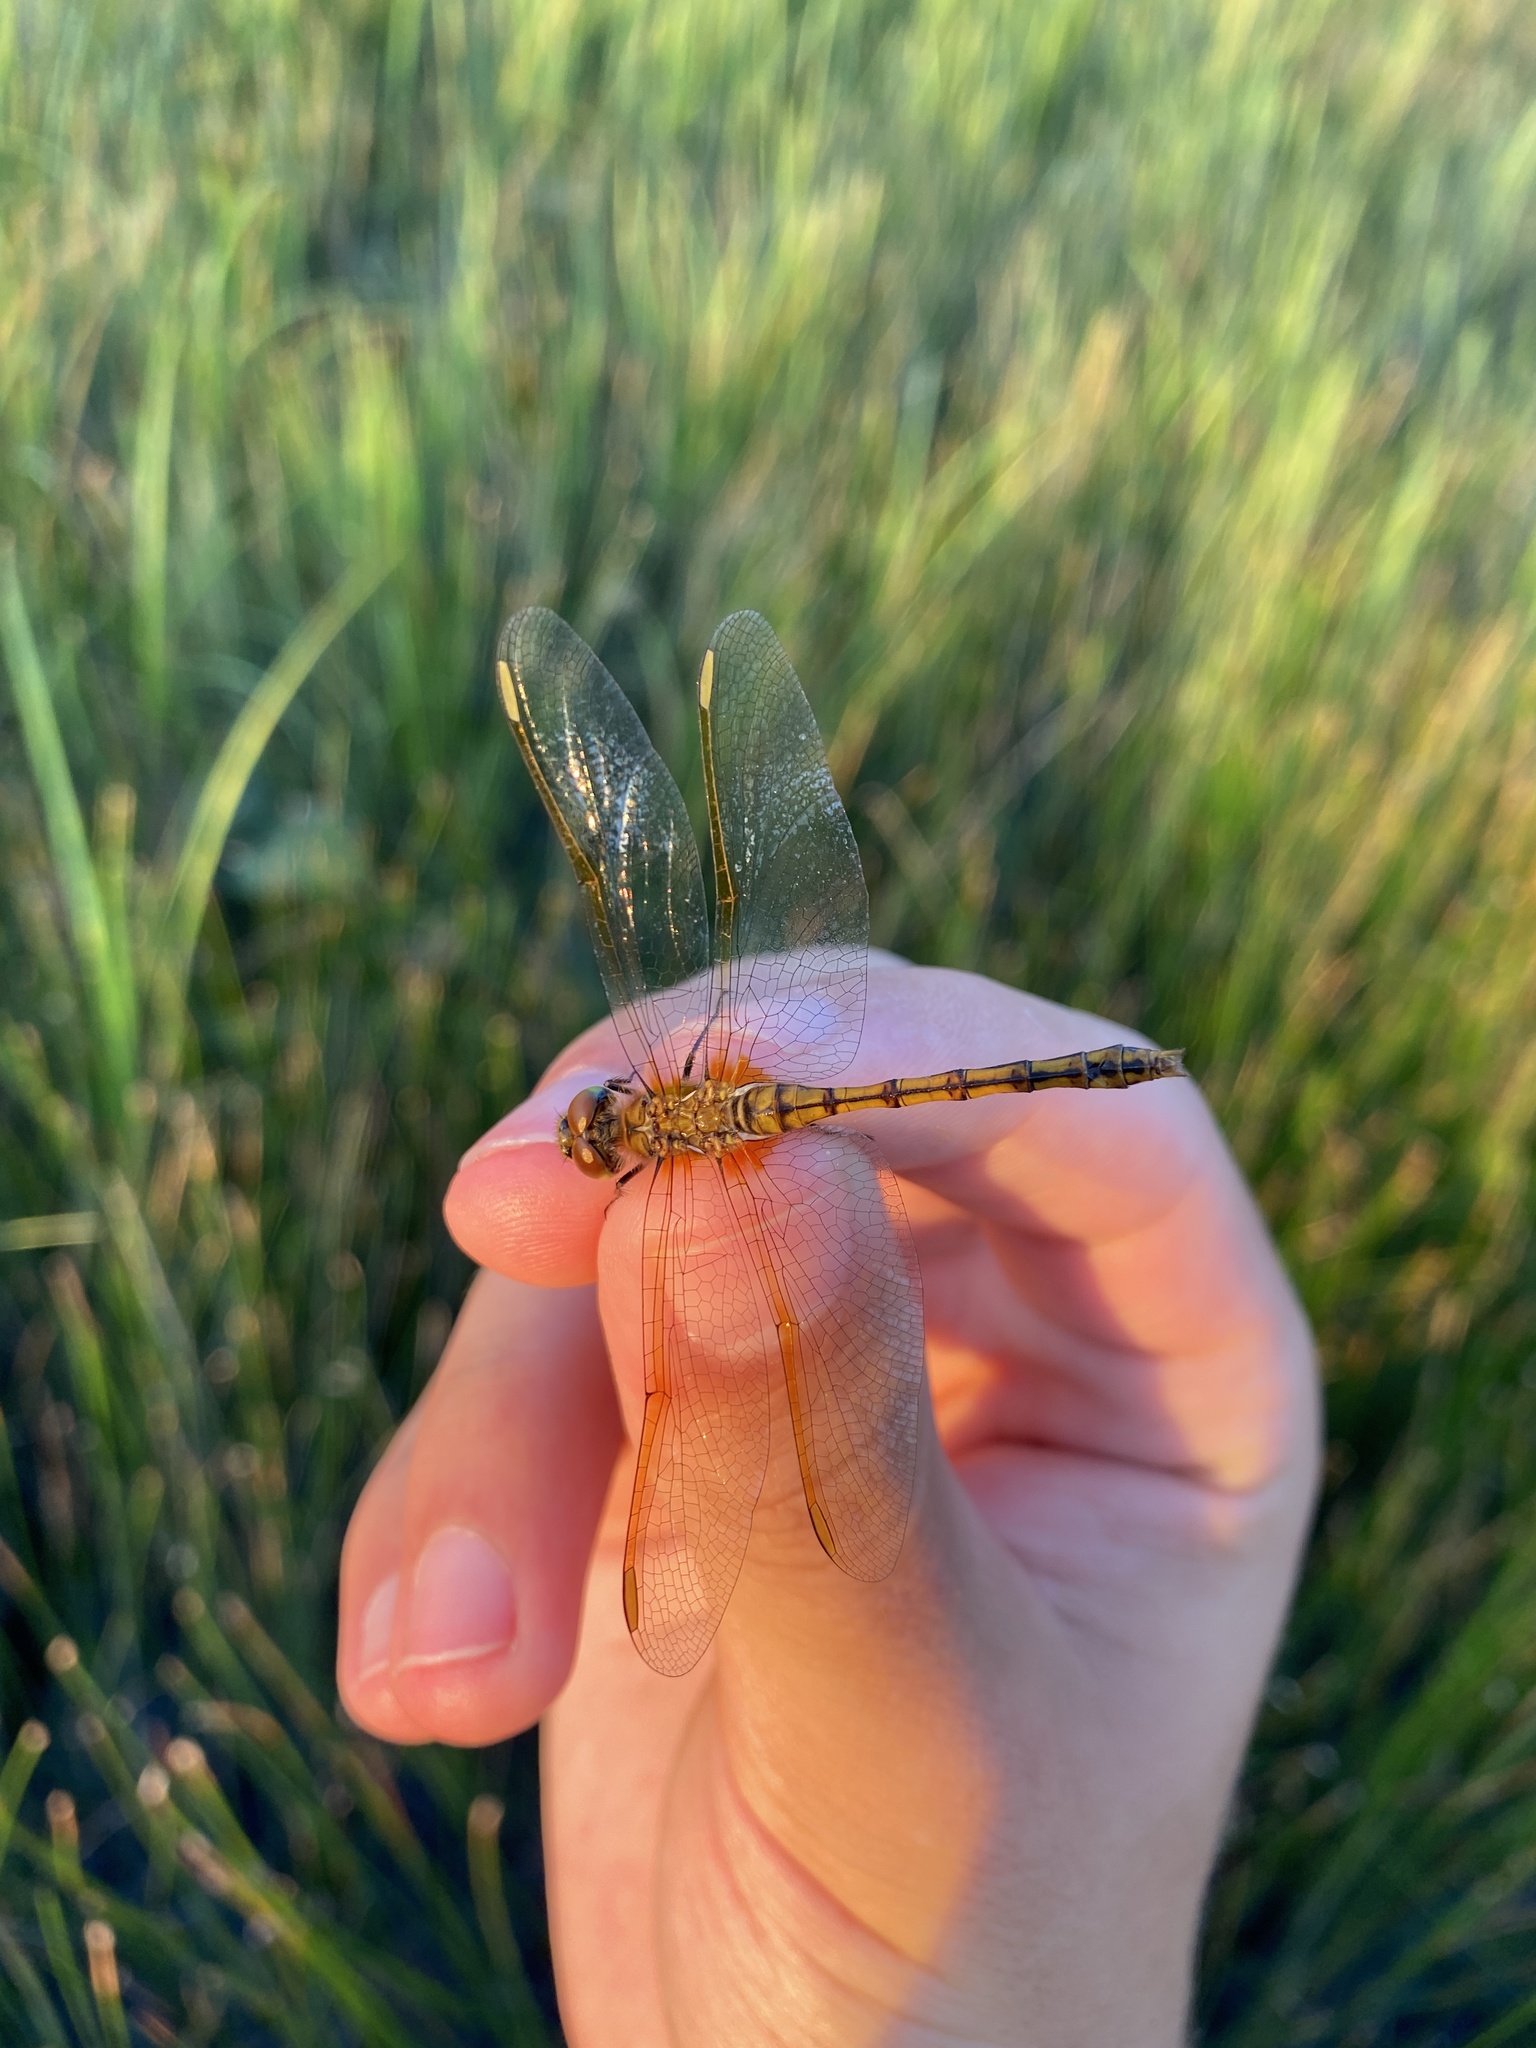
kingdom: Animalia
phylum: Arthropoda
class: Insecta
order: Odonata
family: Libellulidae
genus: Sympetrum
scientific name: Sympetrum costiferum
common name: Saffron-winged meadowhawk
